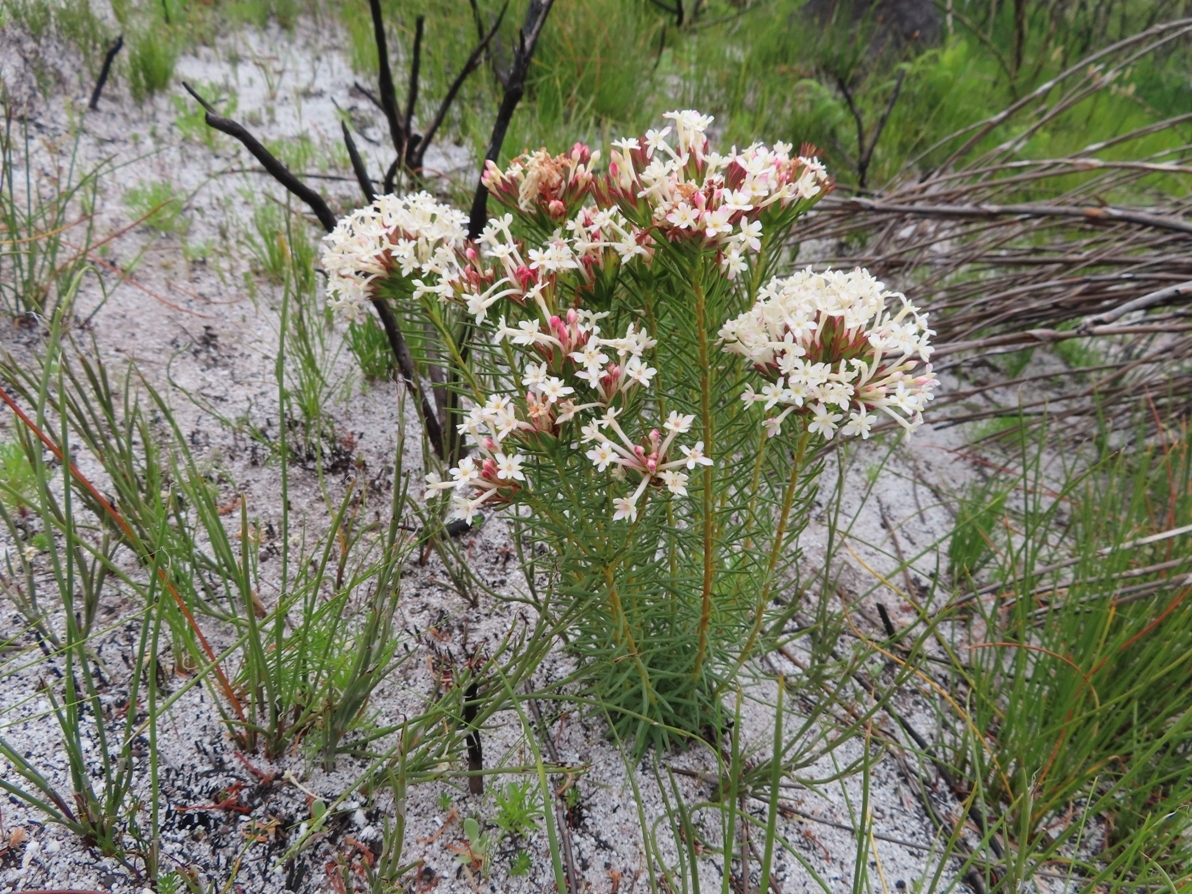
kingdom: Plantae
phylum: Tracheophyta
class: Magnoliopsida
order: Malvales
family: Thymelaeaceae
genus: Gnidia
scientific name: Gnidia pinifolia
